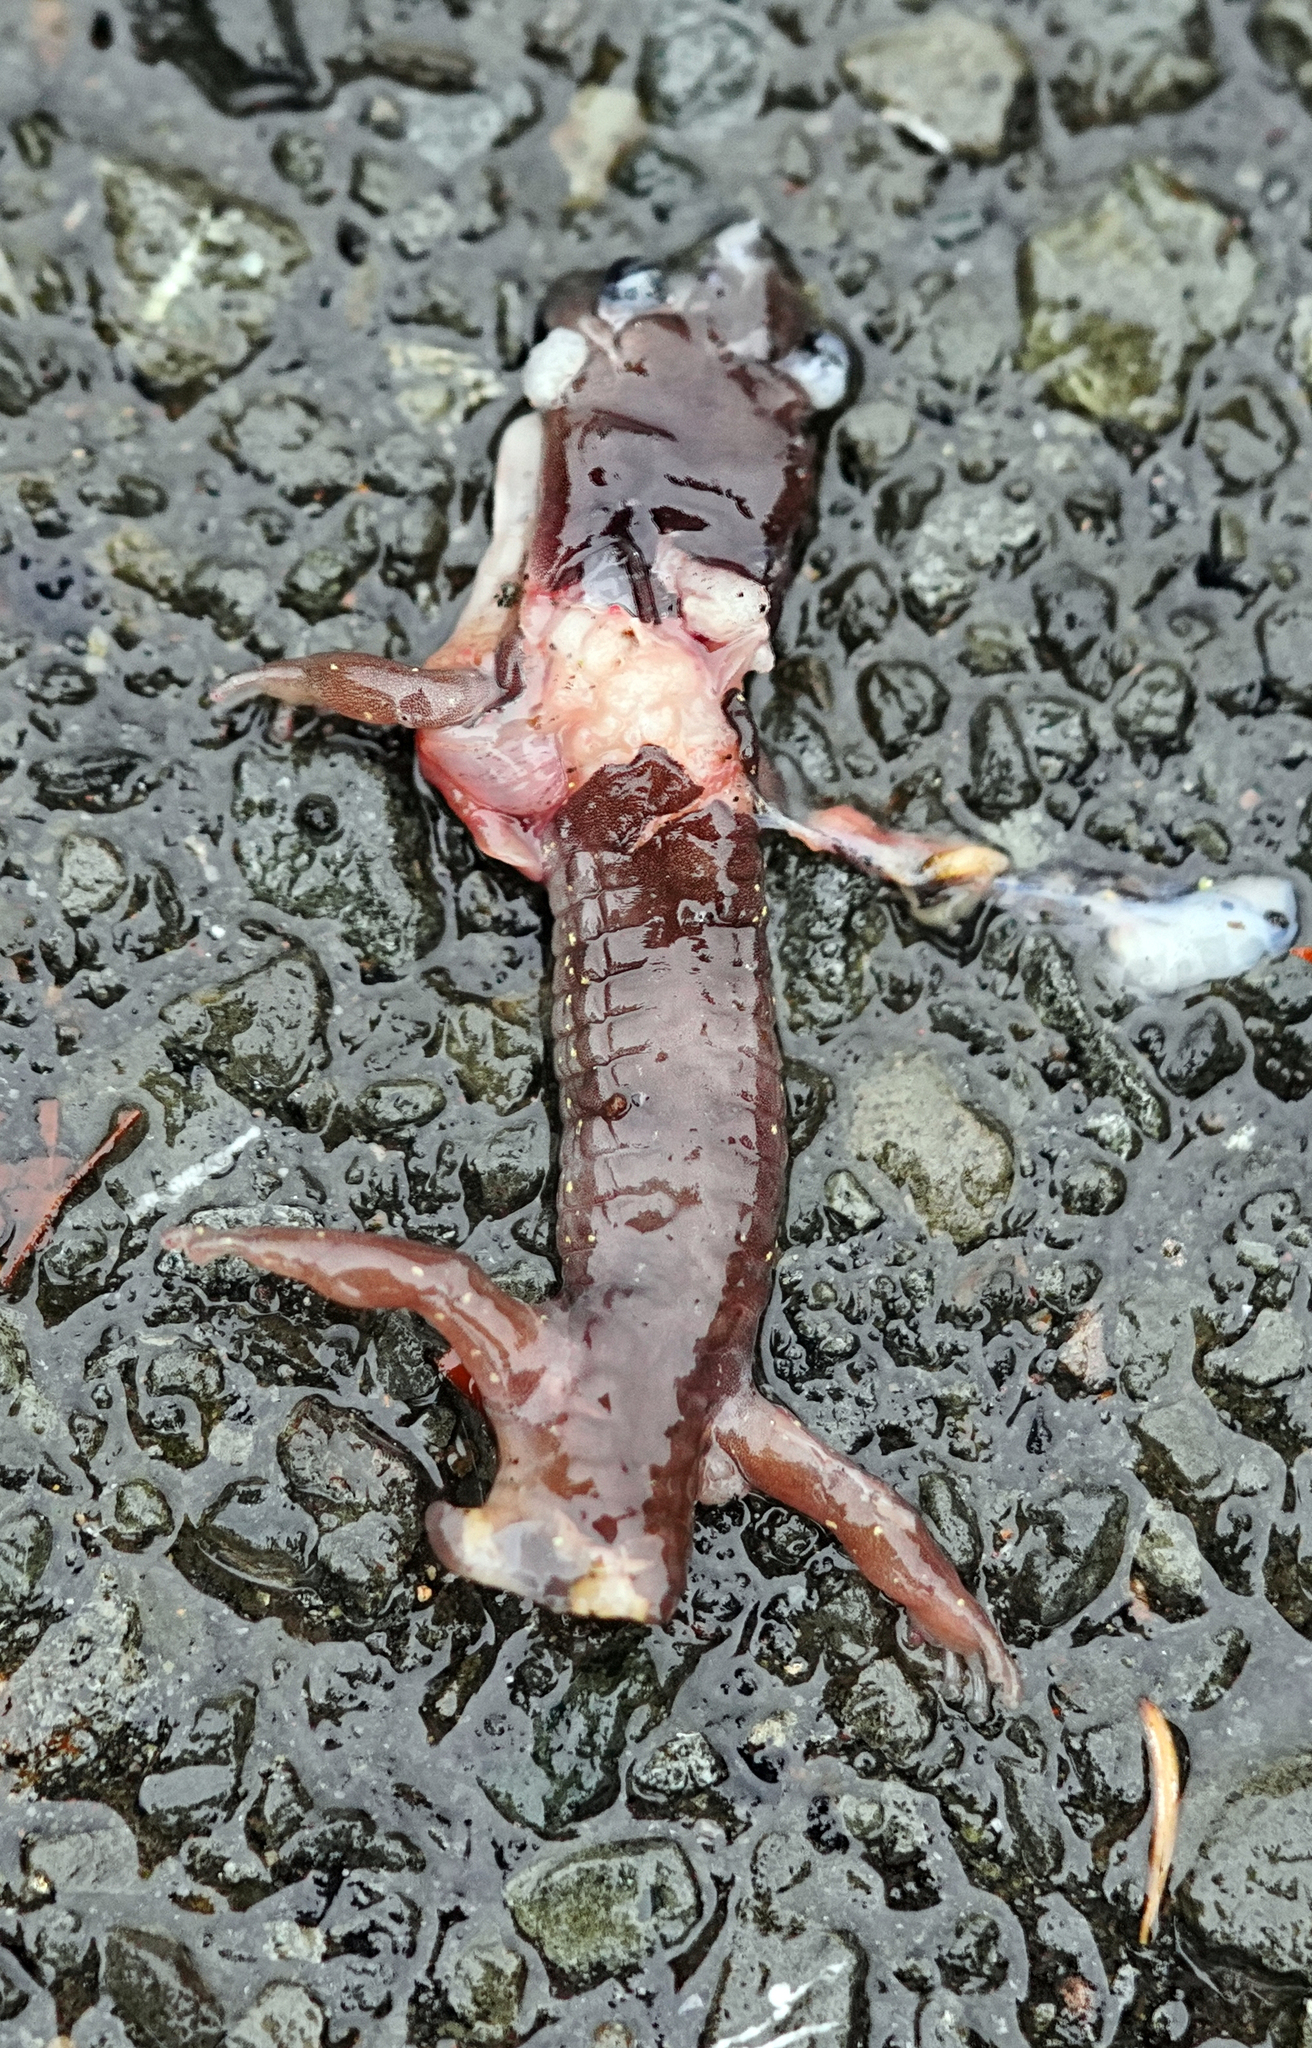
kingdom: Animalia
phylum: Chordata
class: Amphibia
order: Caudata
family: Plethodontidae
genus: Aneides
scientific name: Aneides lugubris
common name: Arboreal salamander
